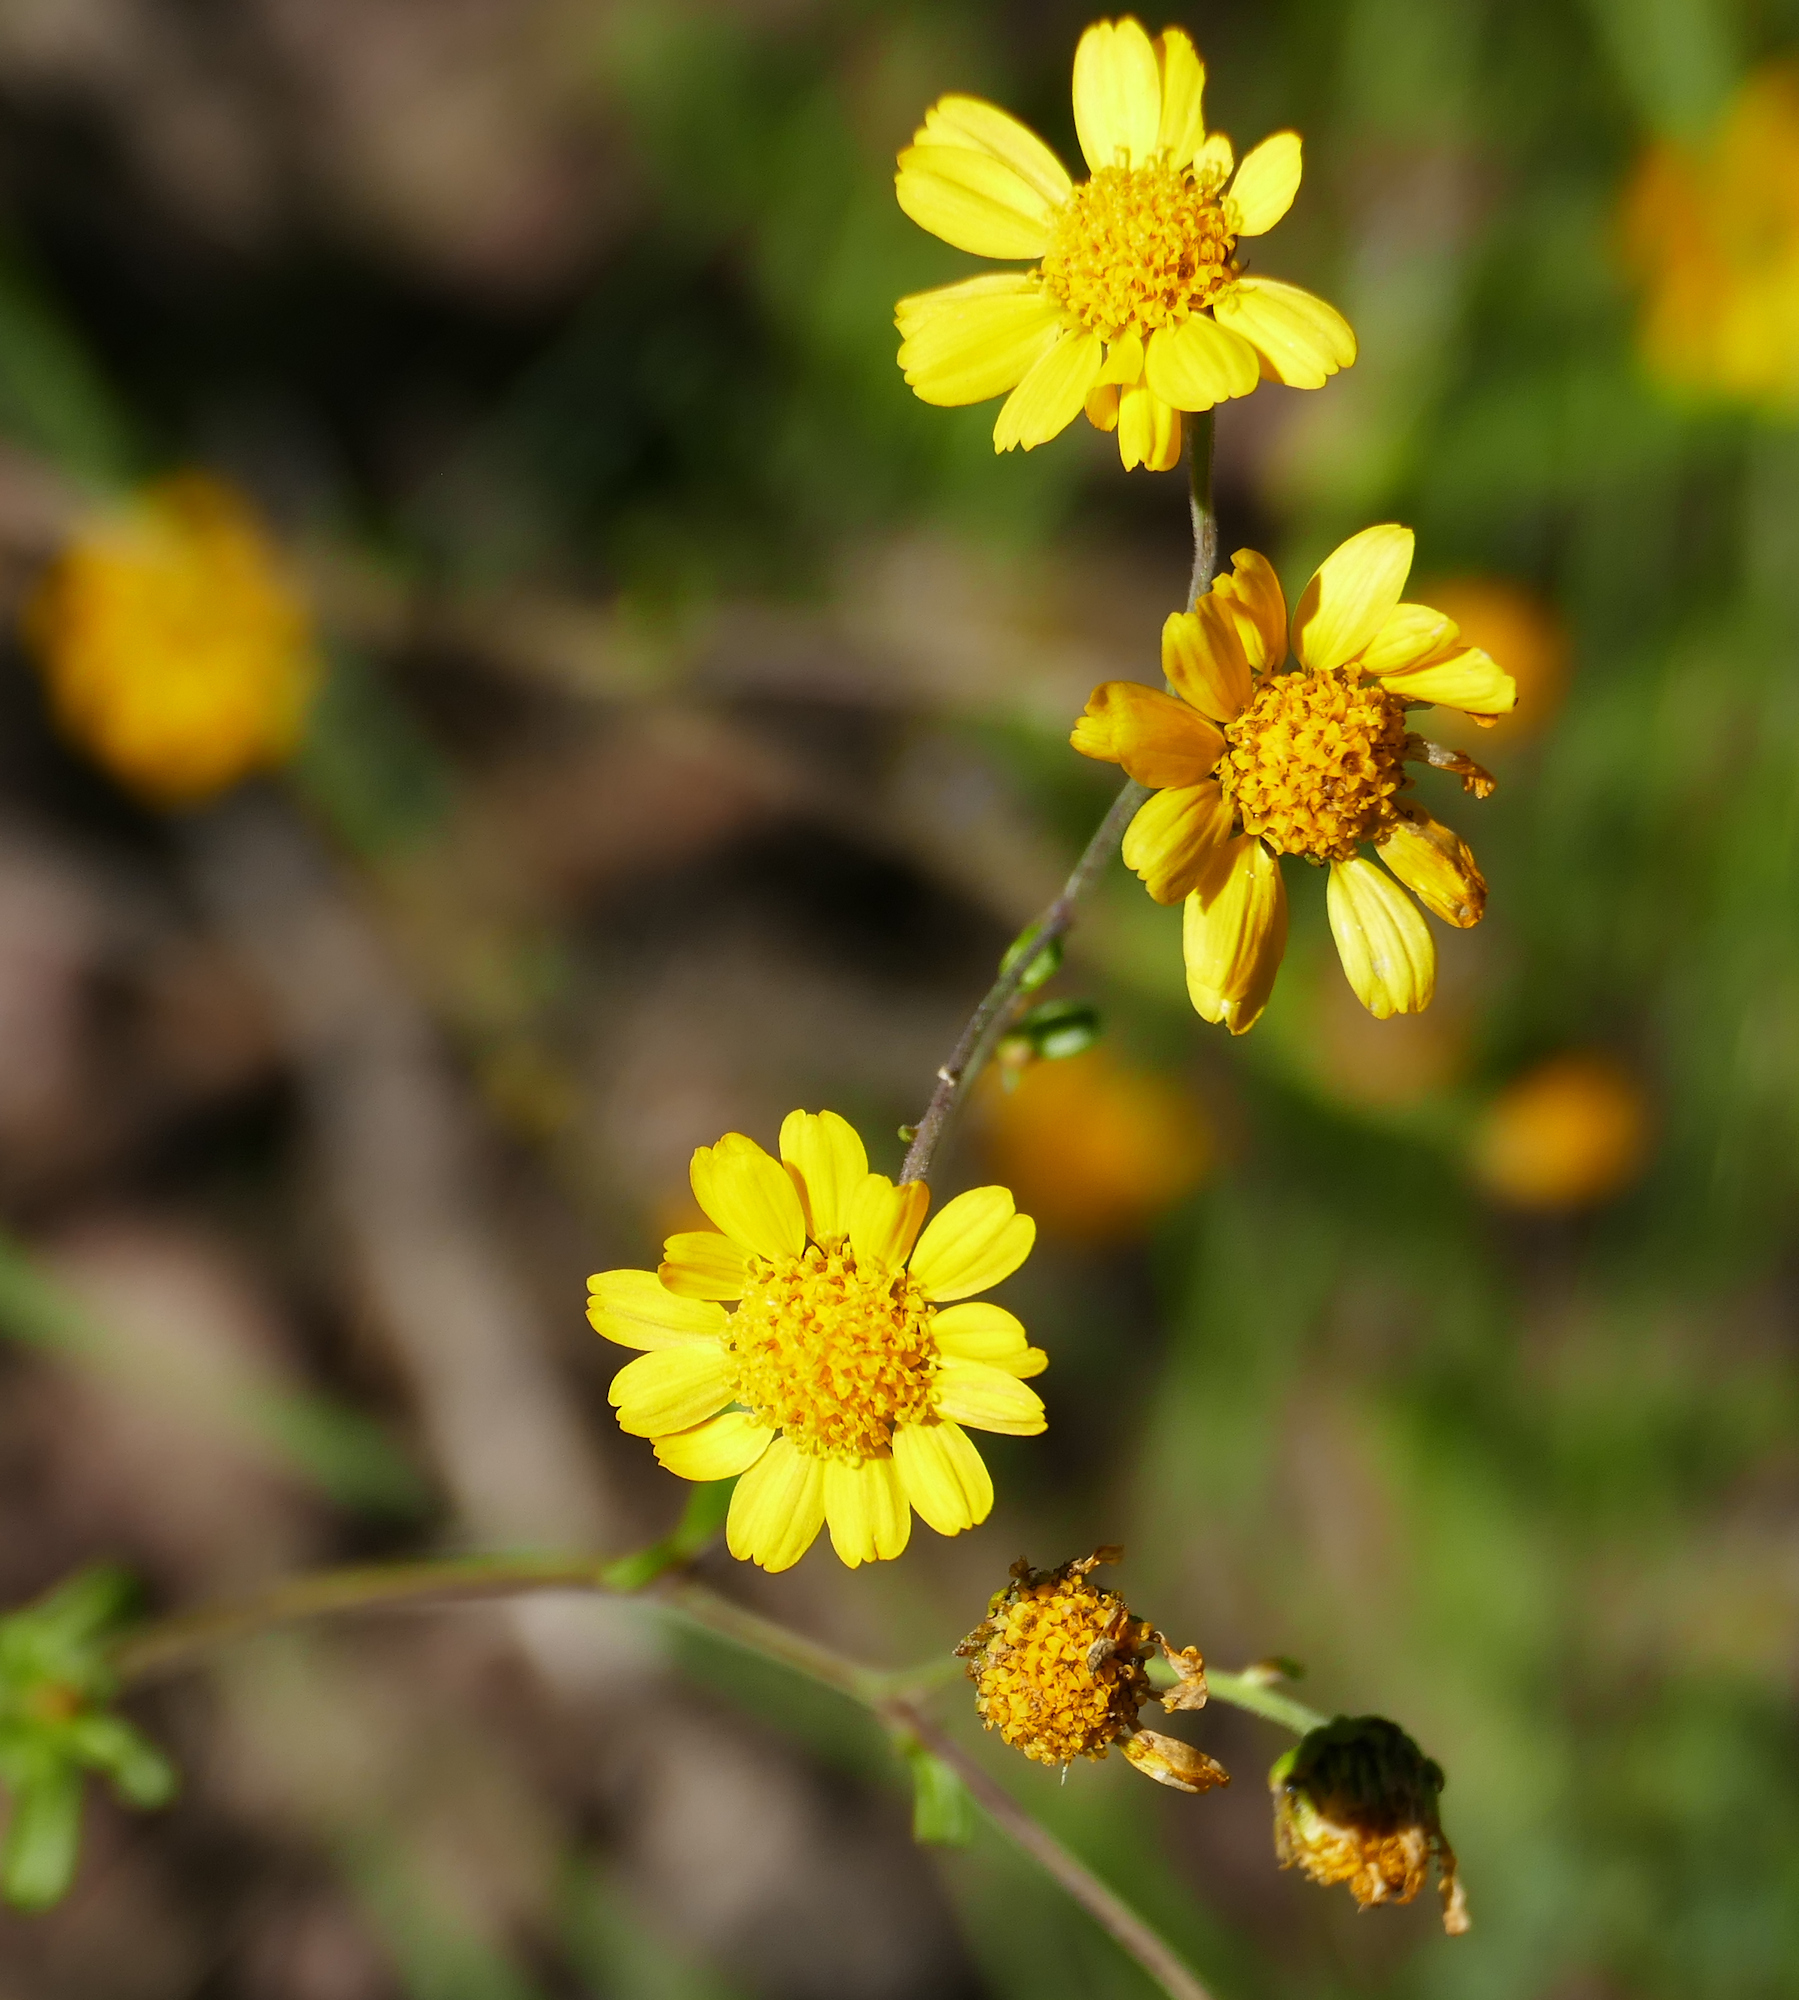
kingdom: Plantae
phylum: Tracheophyta
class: Magnoliopsida
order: Asterales
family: Asteraceae
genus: Hymenothrix
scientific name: Hymenothrix dissecta
